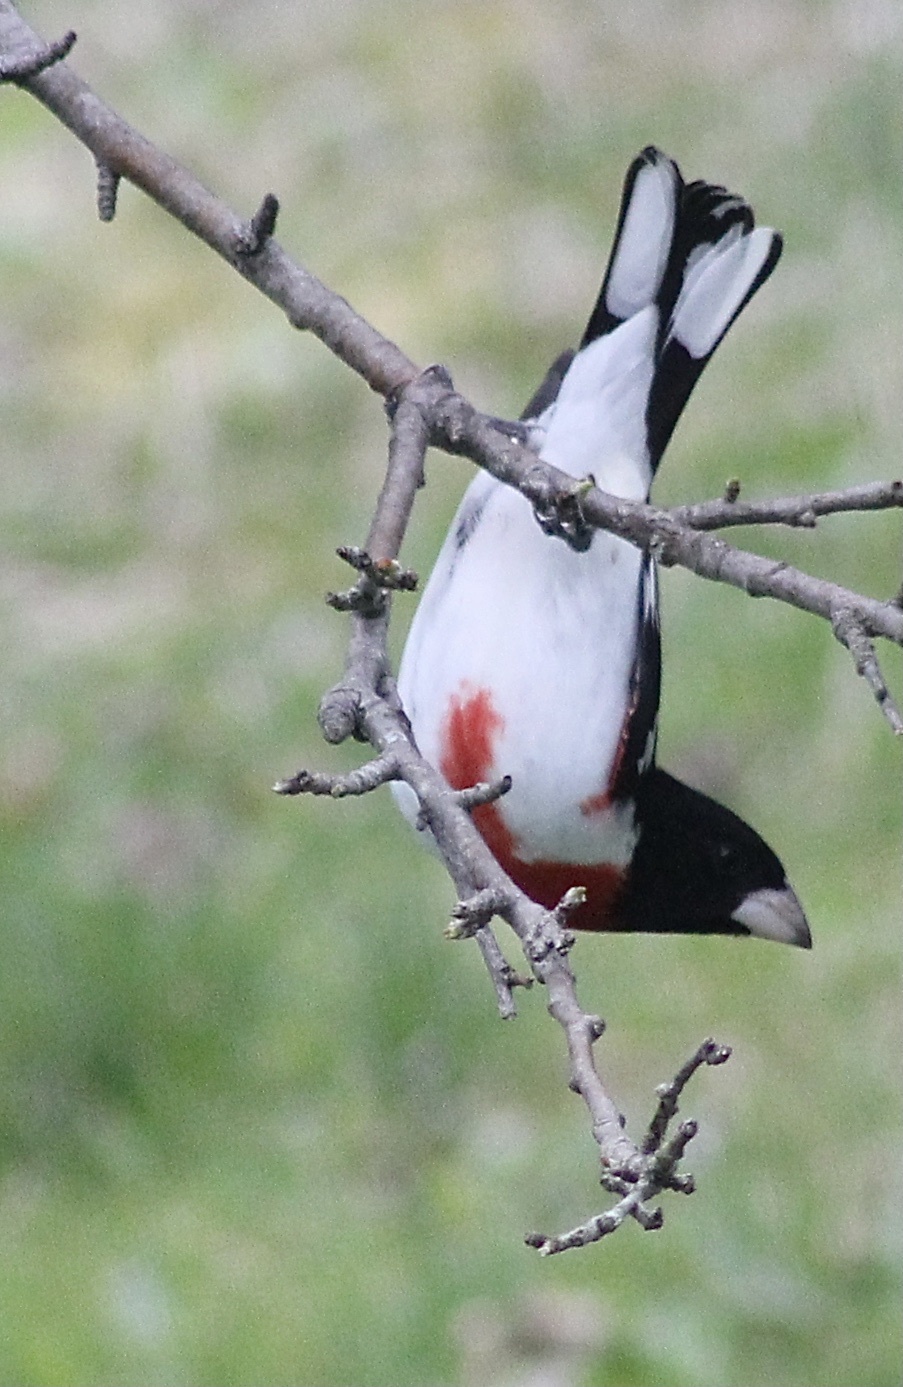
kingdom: Animalia
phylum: Chordata
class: Aves
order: Passeriformes
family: Cardinalidae
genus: Pheucticus
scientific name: Pheucticus ludovicianus
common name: Rose-breasted grosbeak
